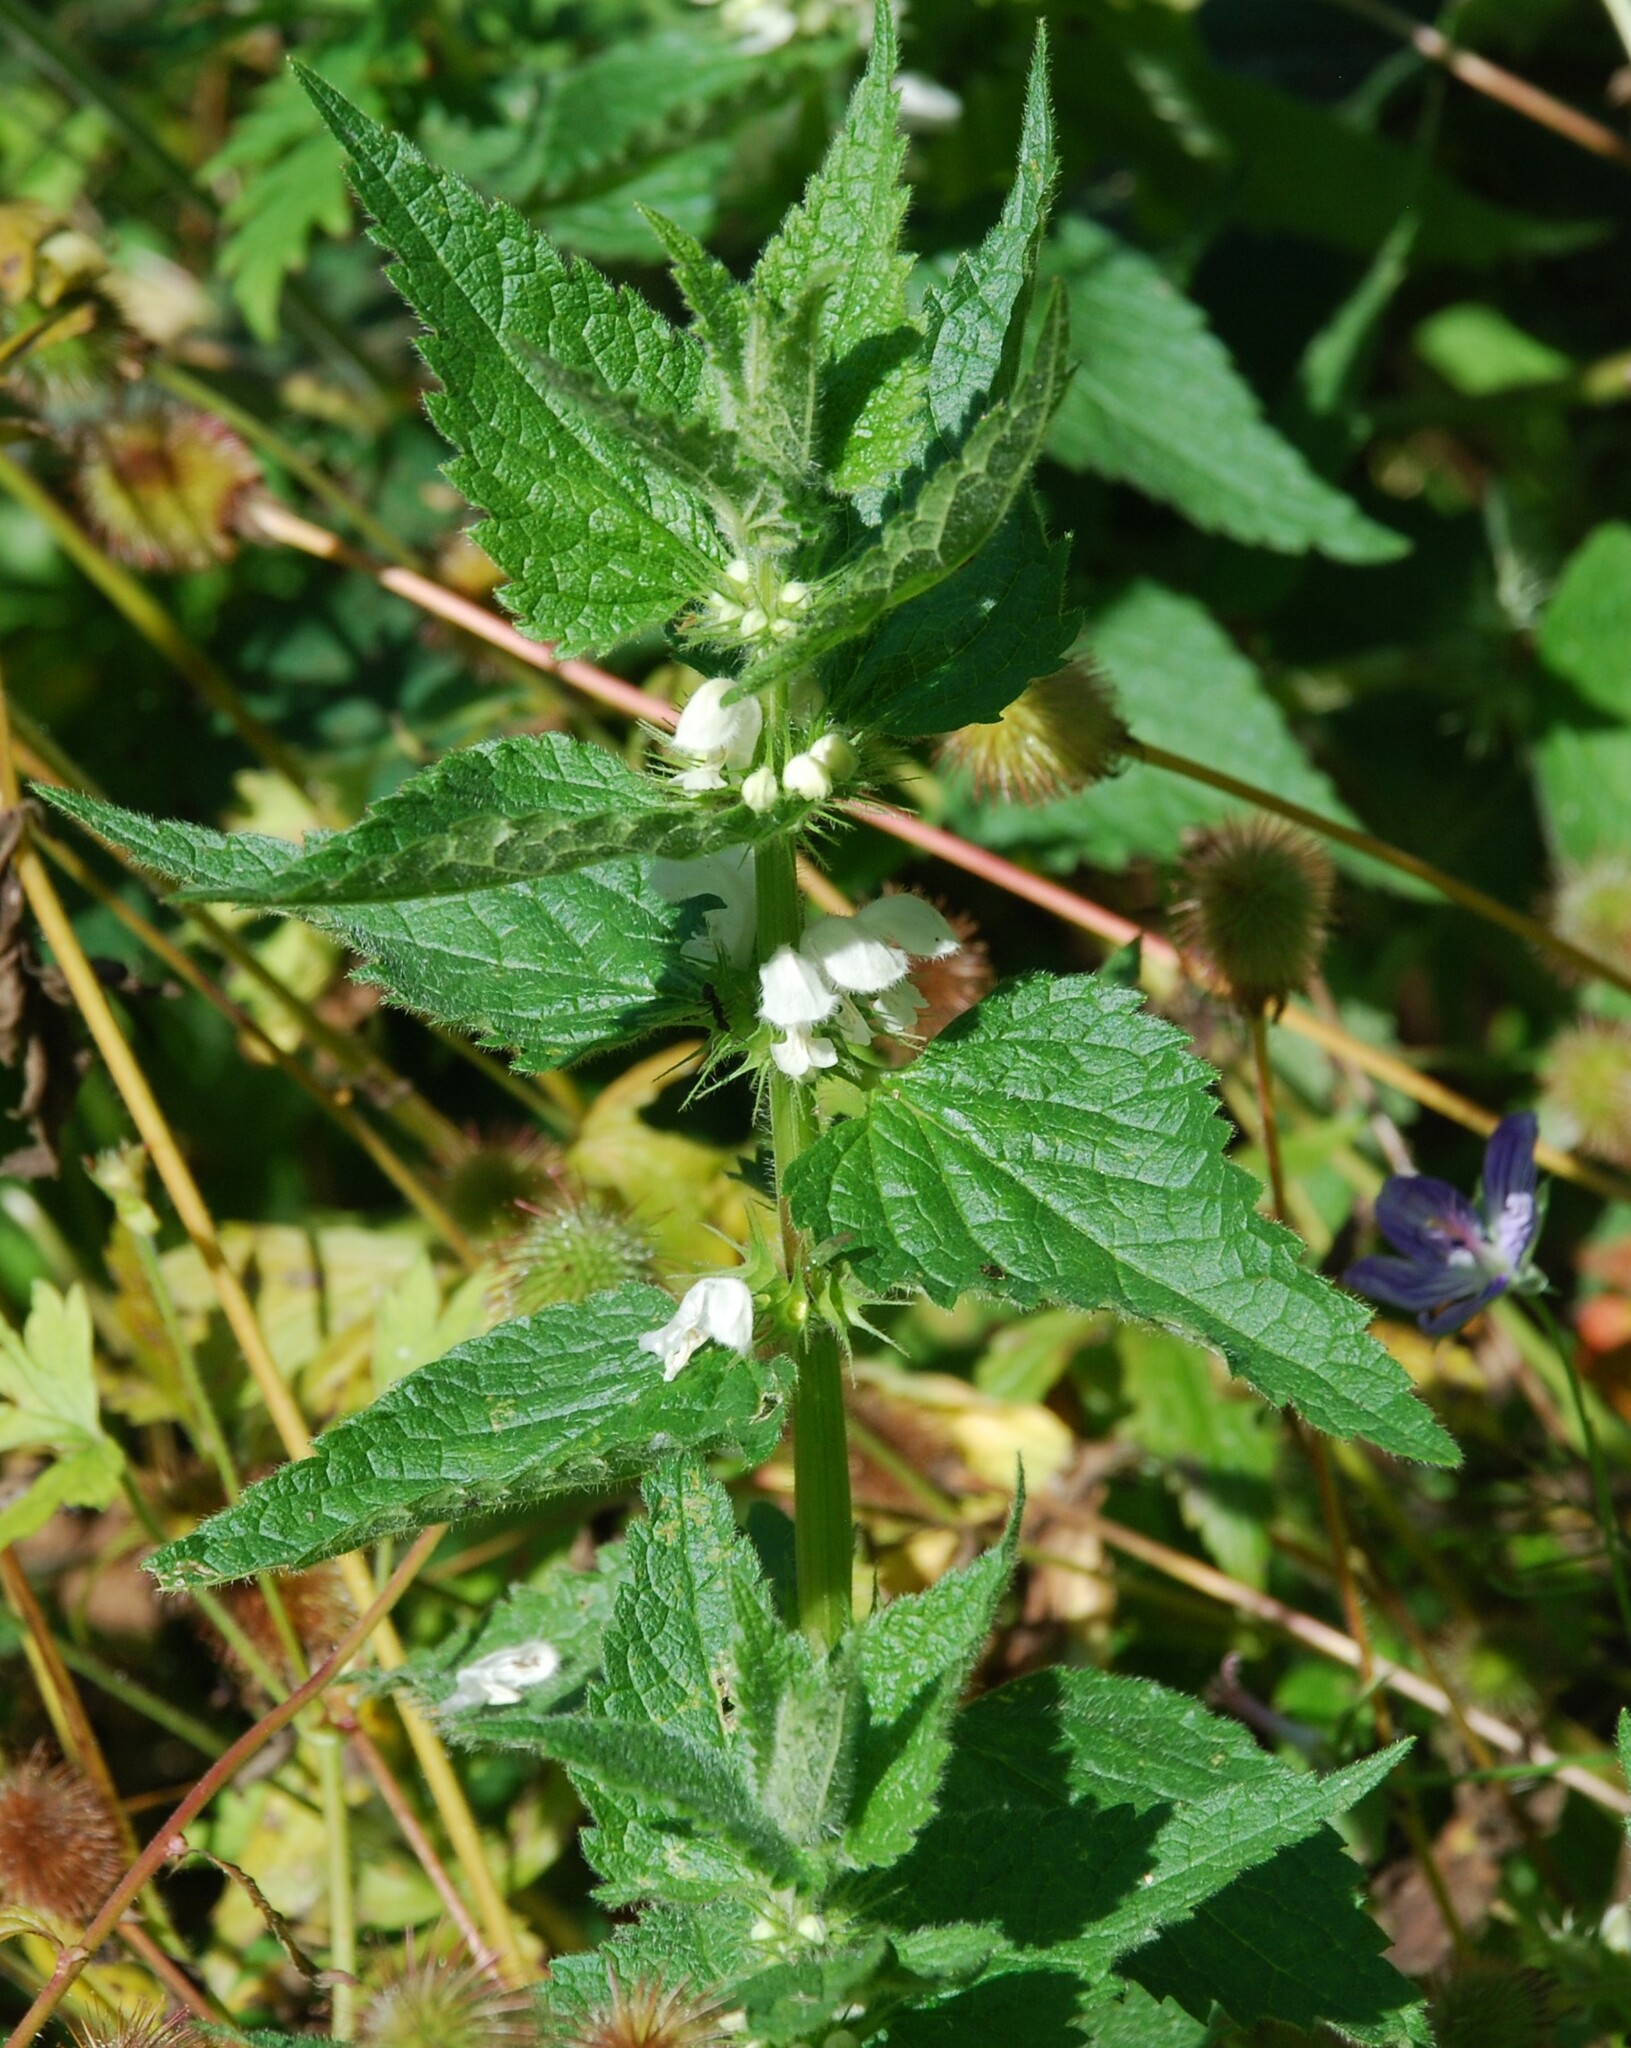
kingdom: Plantae
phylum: Tracheophyta
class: Magnoliopsida
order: Lamiales
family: Lamiaceae
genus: Lamium
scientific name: Lamium album
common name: White dead-nettle
